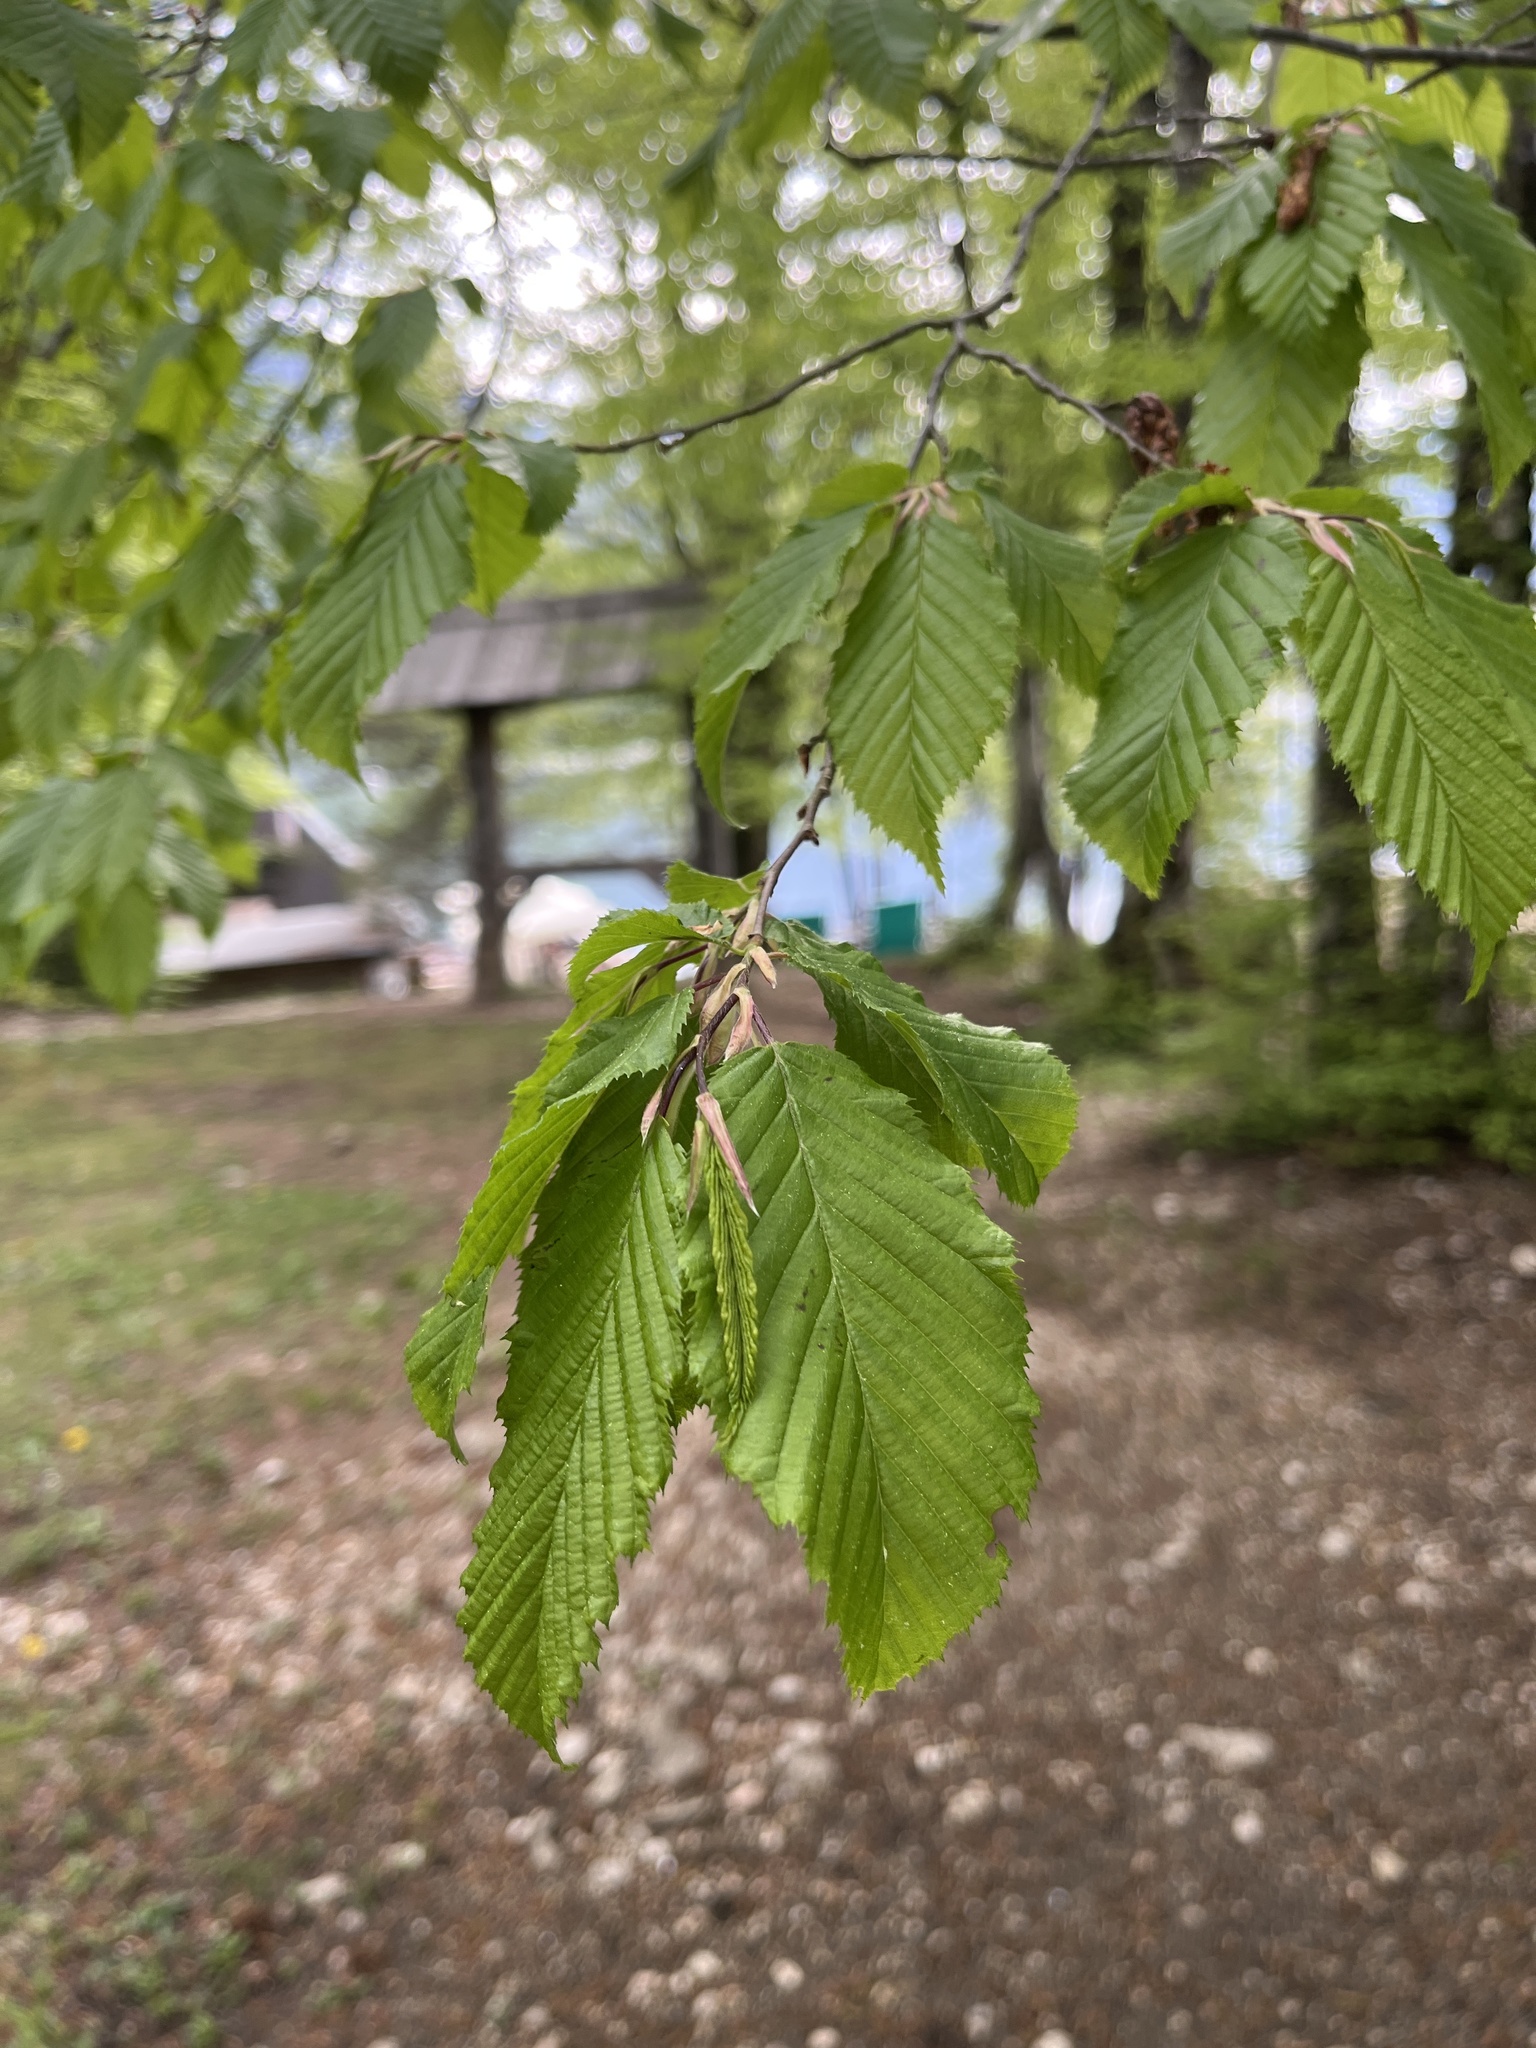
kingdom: Plantae
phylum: Tracheophyta
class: Magnoliopsida
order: Fagales
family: Betulaceae
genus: Carpinus
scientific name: Carpinus betulus
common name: Hornbeam
